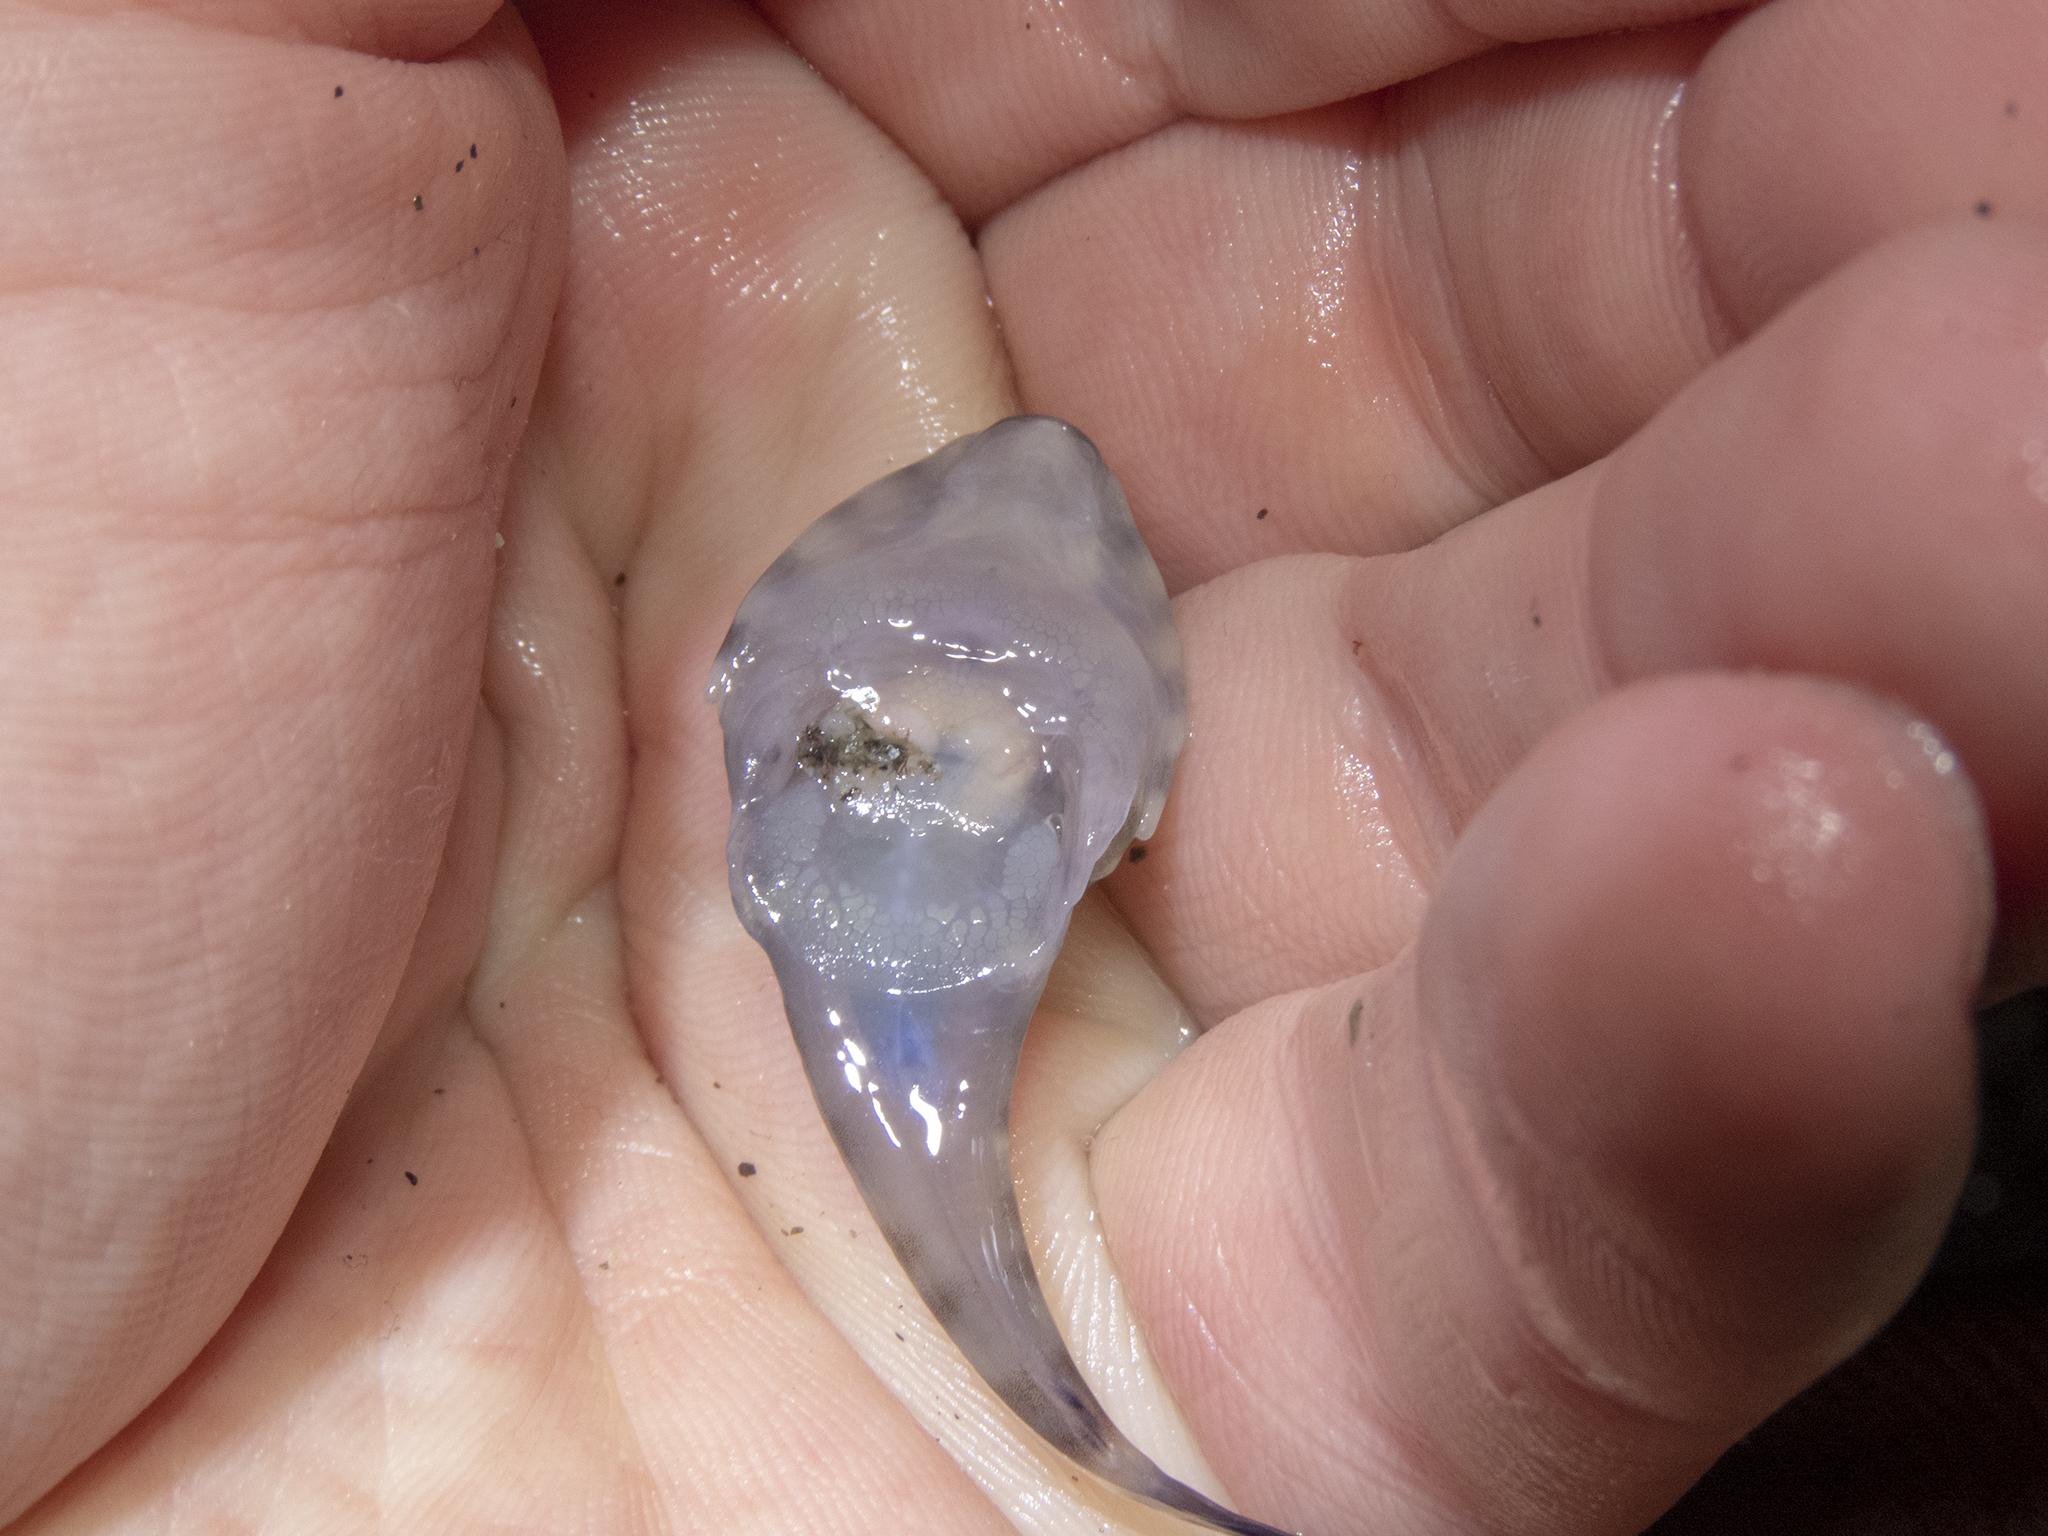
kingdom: Animalia
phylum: Chordata
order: Gobiesociformes
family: Gobiesocidae
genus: Diplocrepis
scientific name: Diplocrepis puniceus
